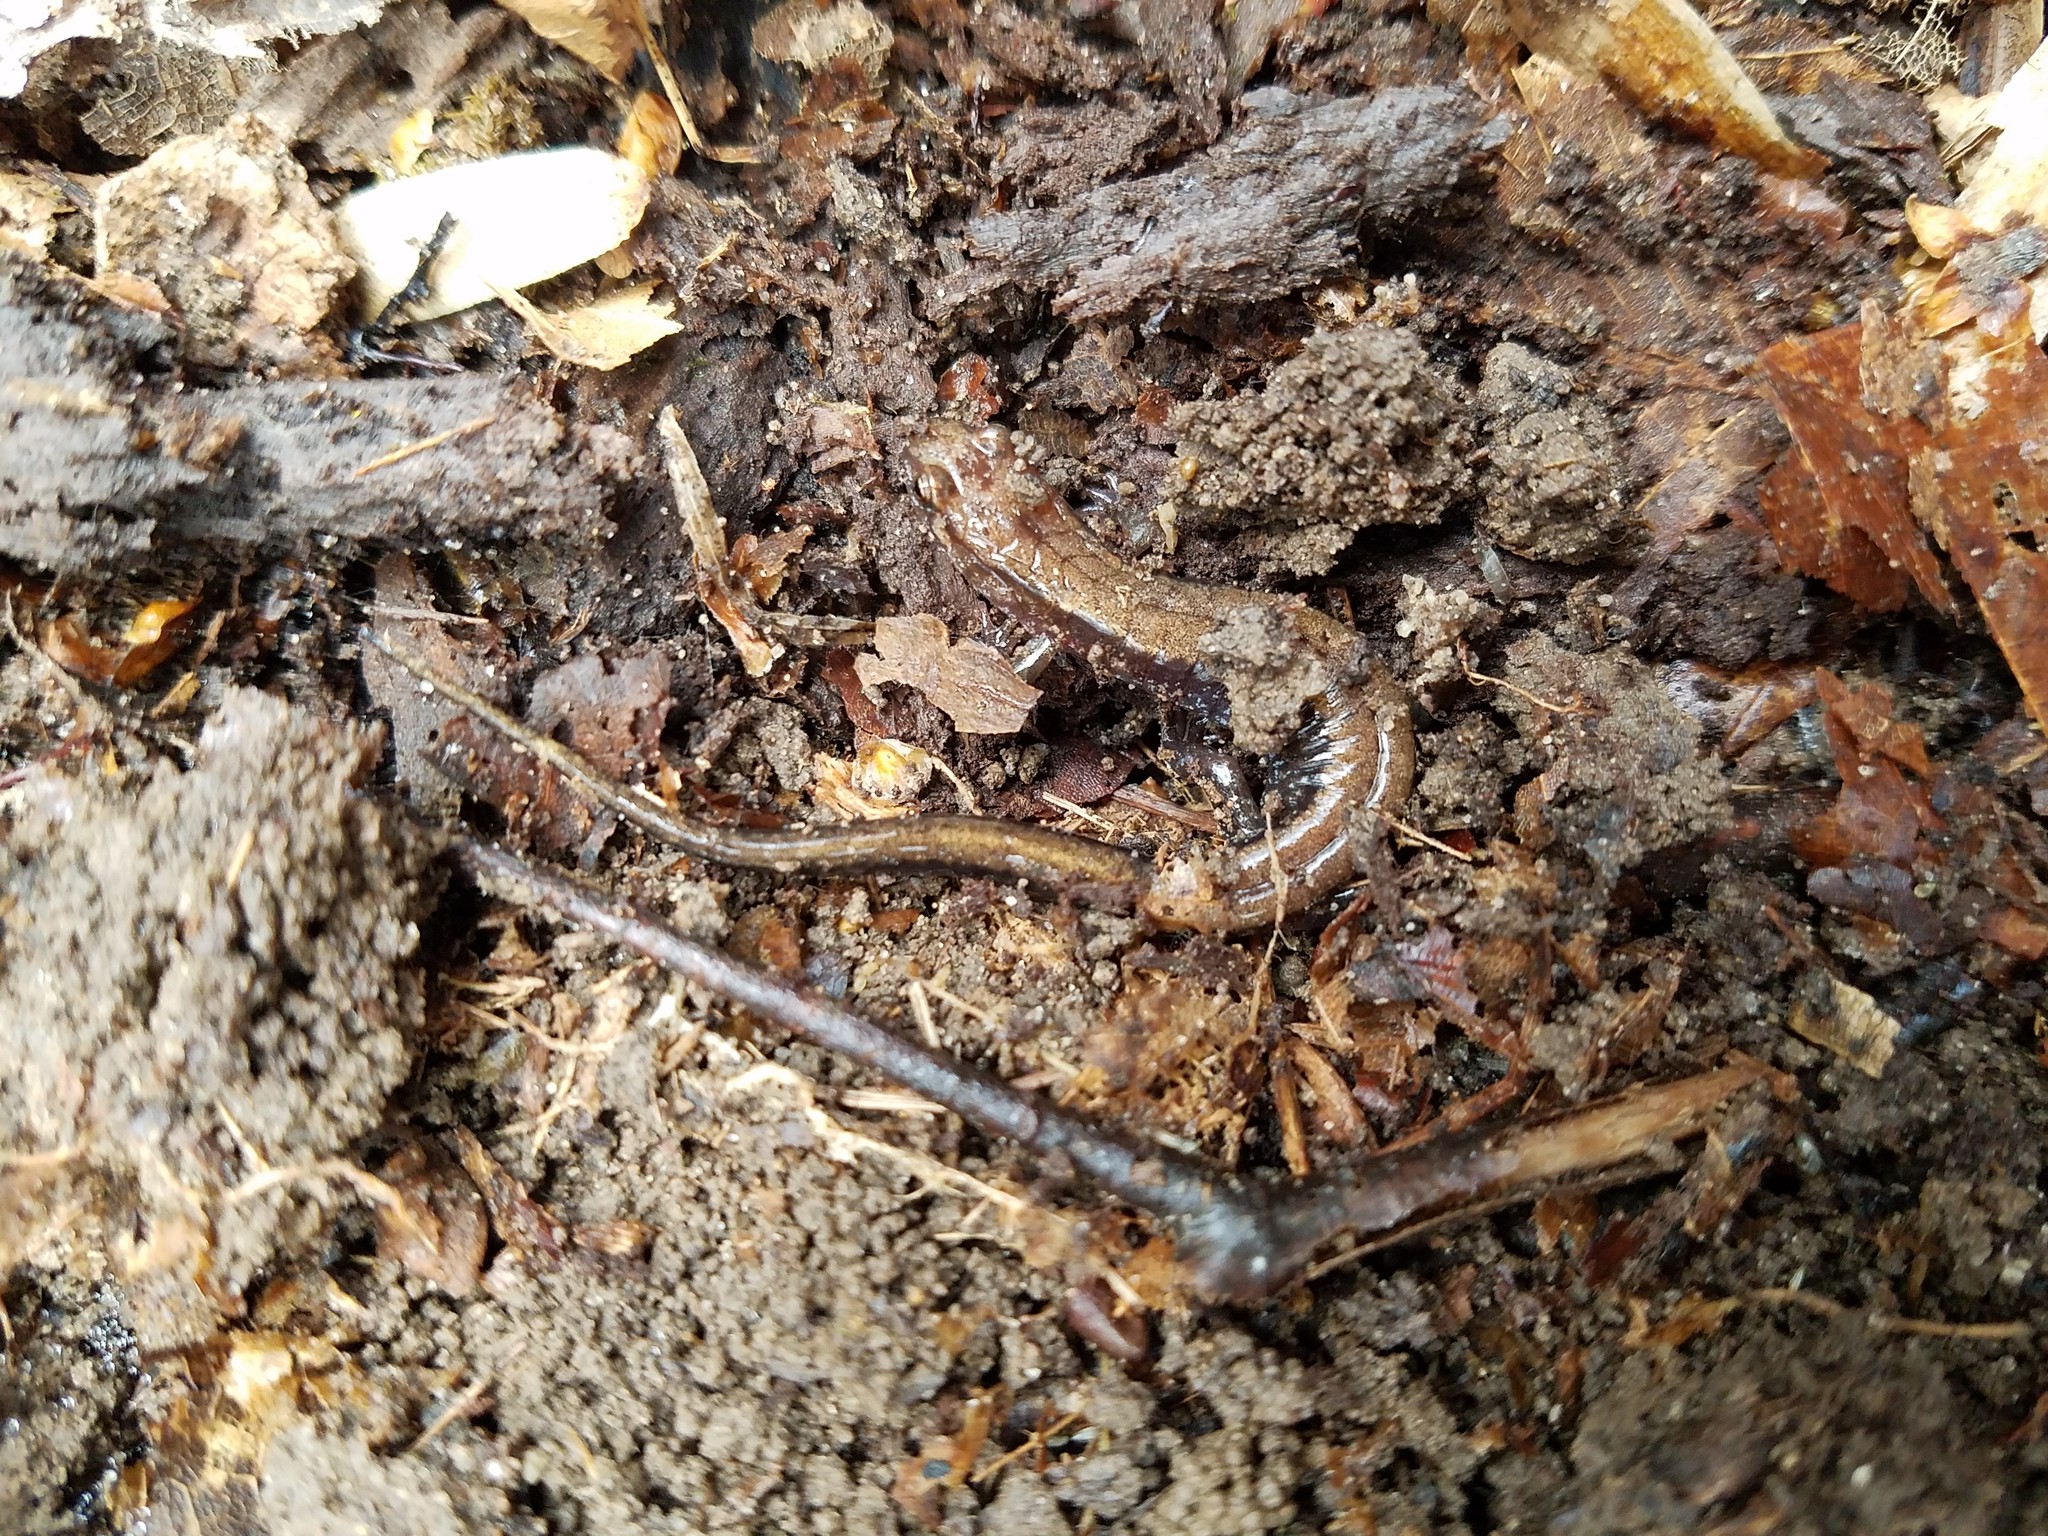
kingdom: Animalia
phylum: Chordata
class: Amphibia
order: Caudata
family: Plethodontidae
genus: Desmognathus
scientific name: Desmognathus ochrophaeus
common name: Allegheny mountain dusky salamander
